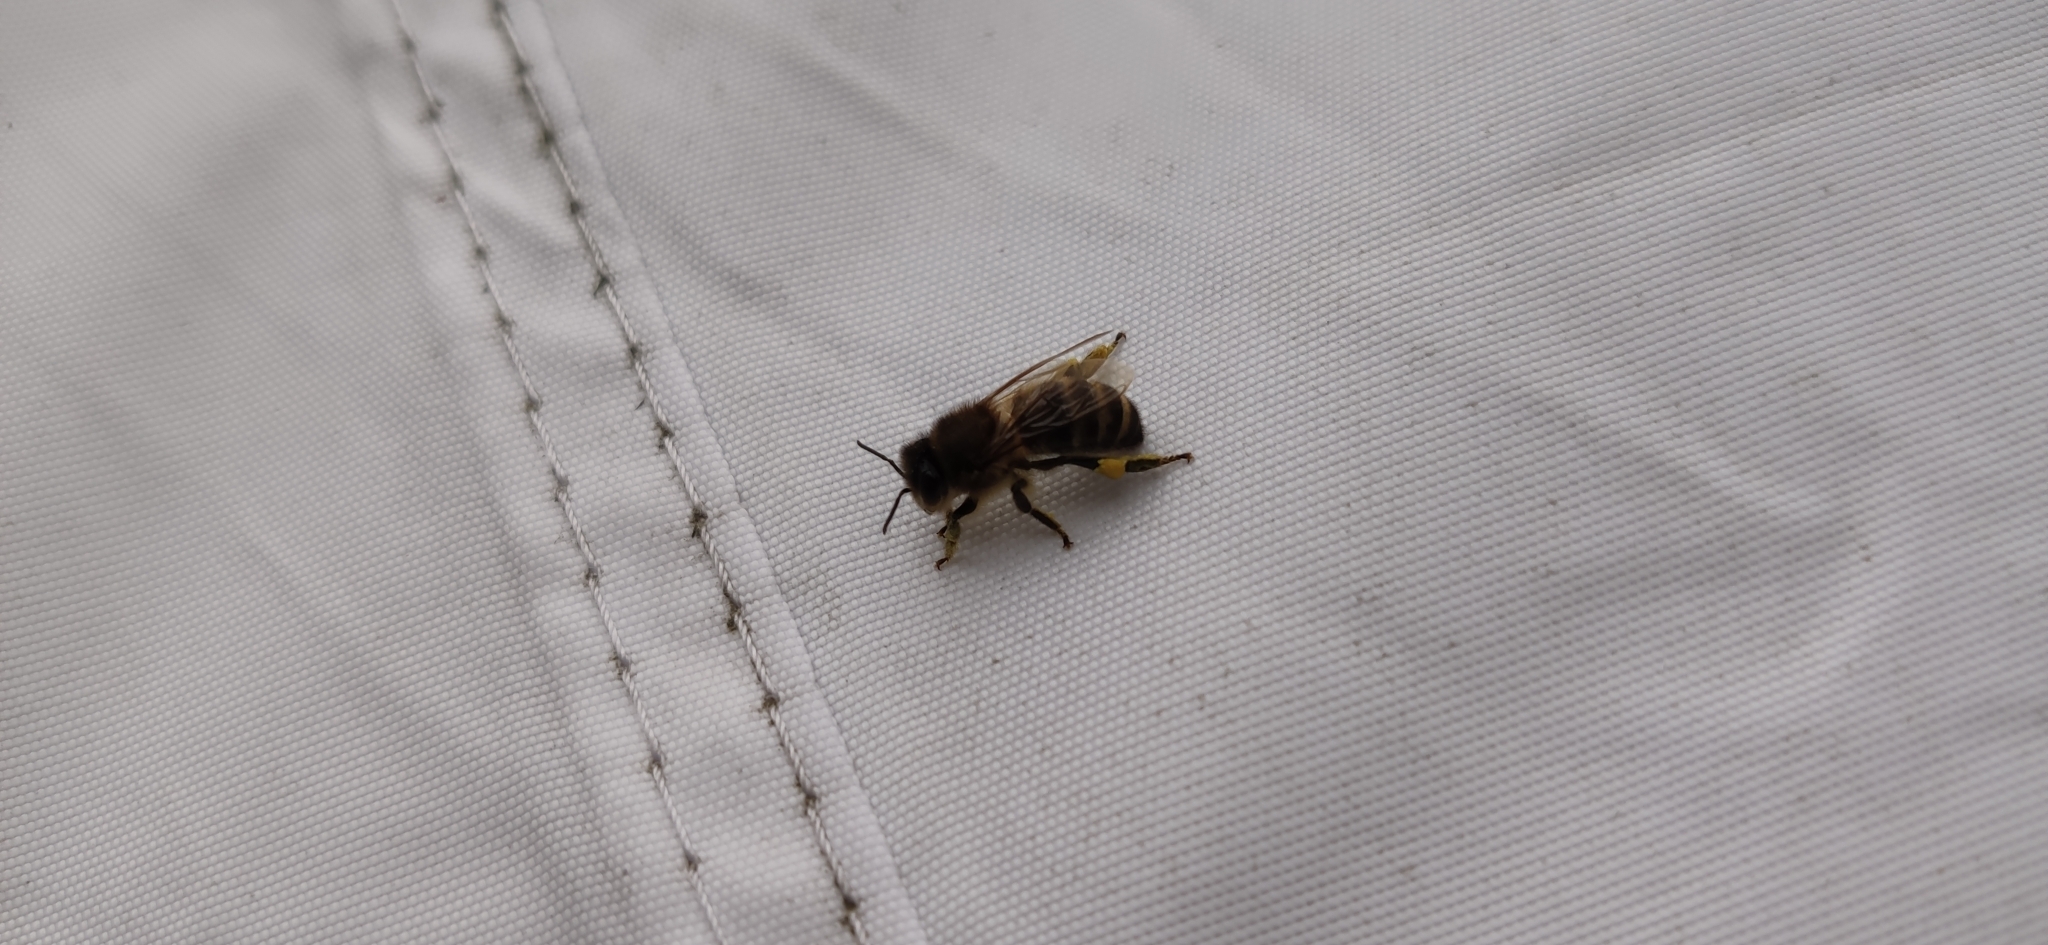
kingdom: Animalia
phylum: Arthropoda
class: Insecta
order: Hymenoptera
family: Apidae
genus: Apis
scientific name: Apis mellifera
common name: Honey bee
